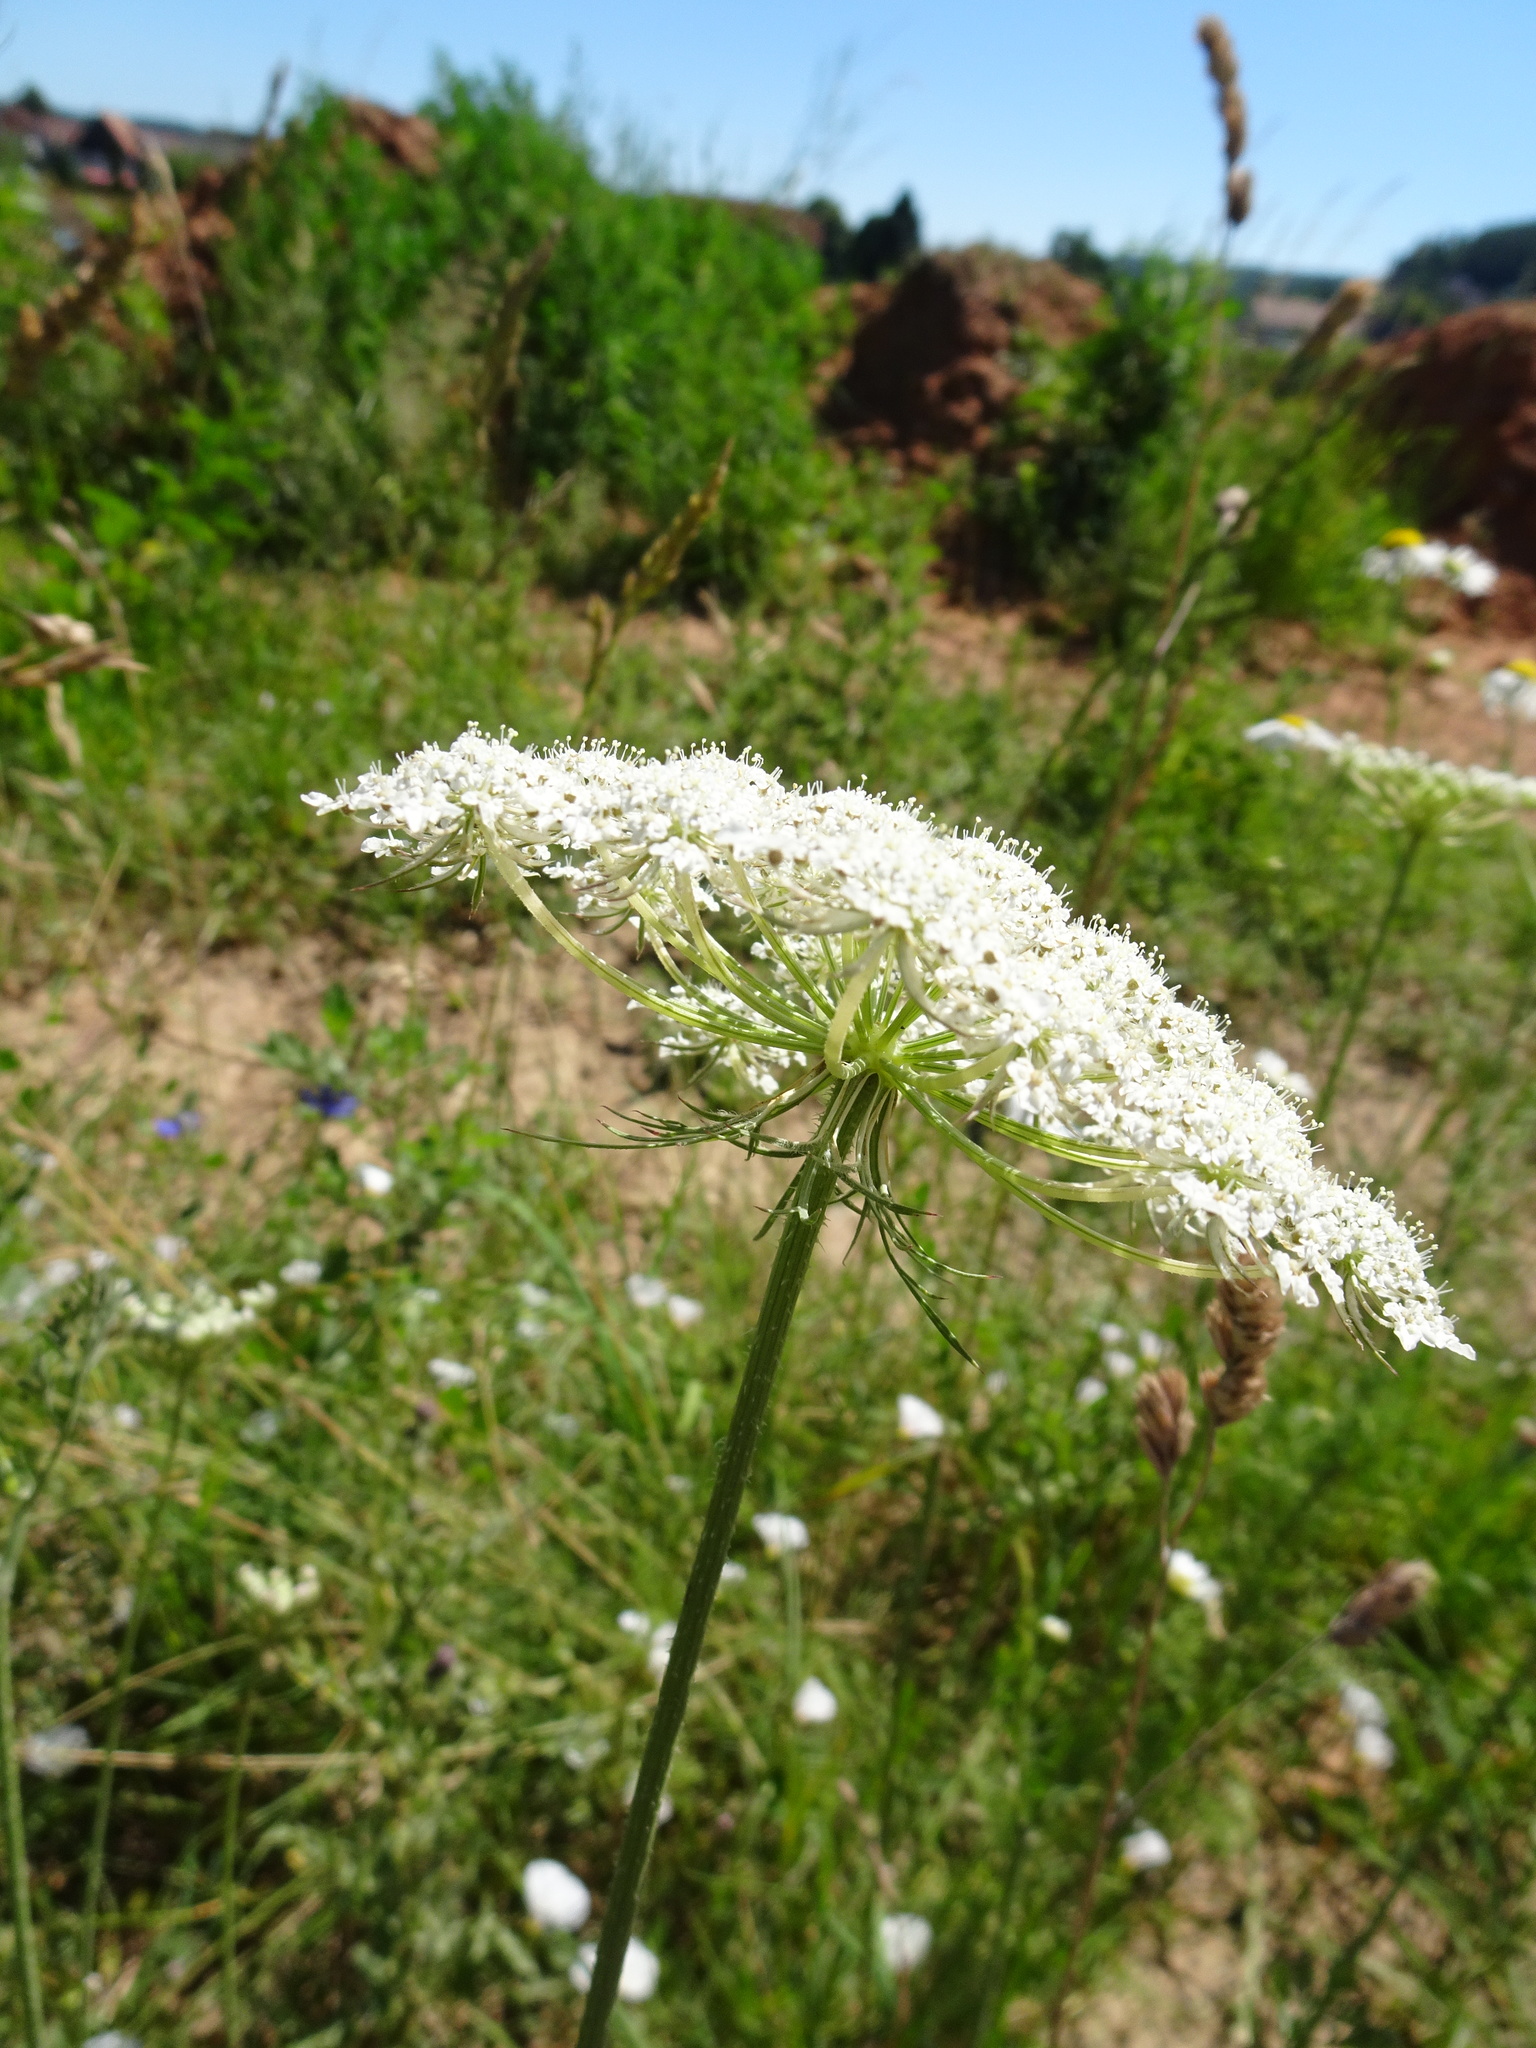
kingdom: Plantae
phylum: Tracheophyta
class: Magnoliopsida
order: Apiales
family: Apiaceae
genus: Daucus
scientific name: Daucus carota
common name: Wild carrot
